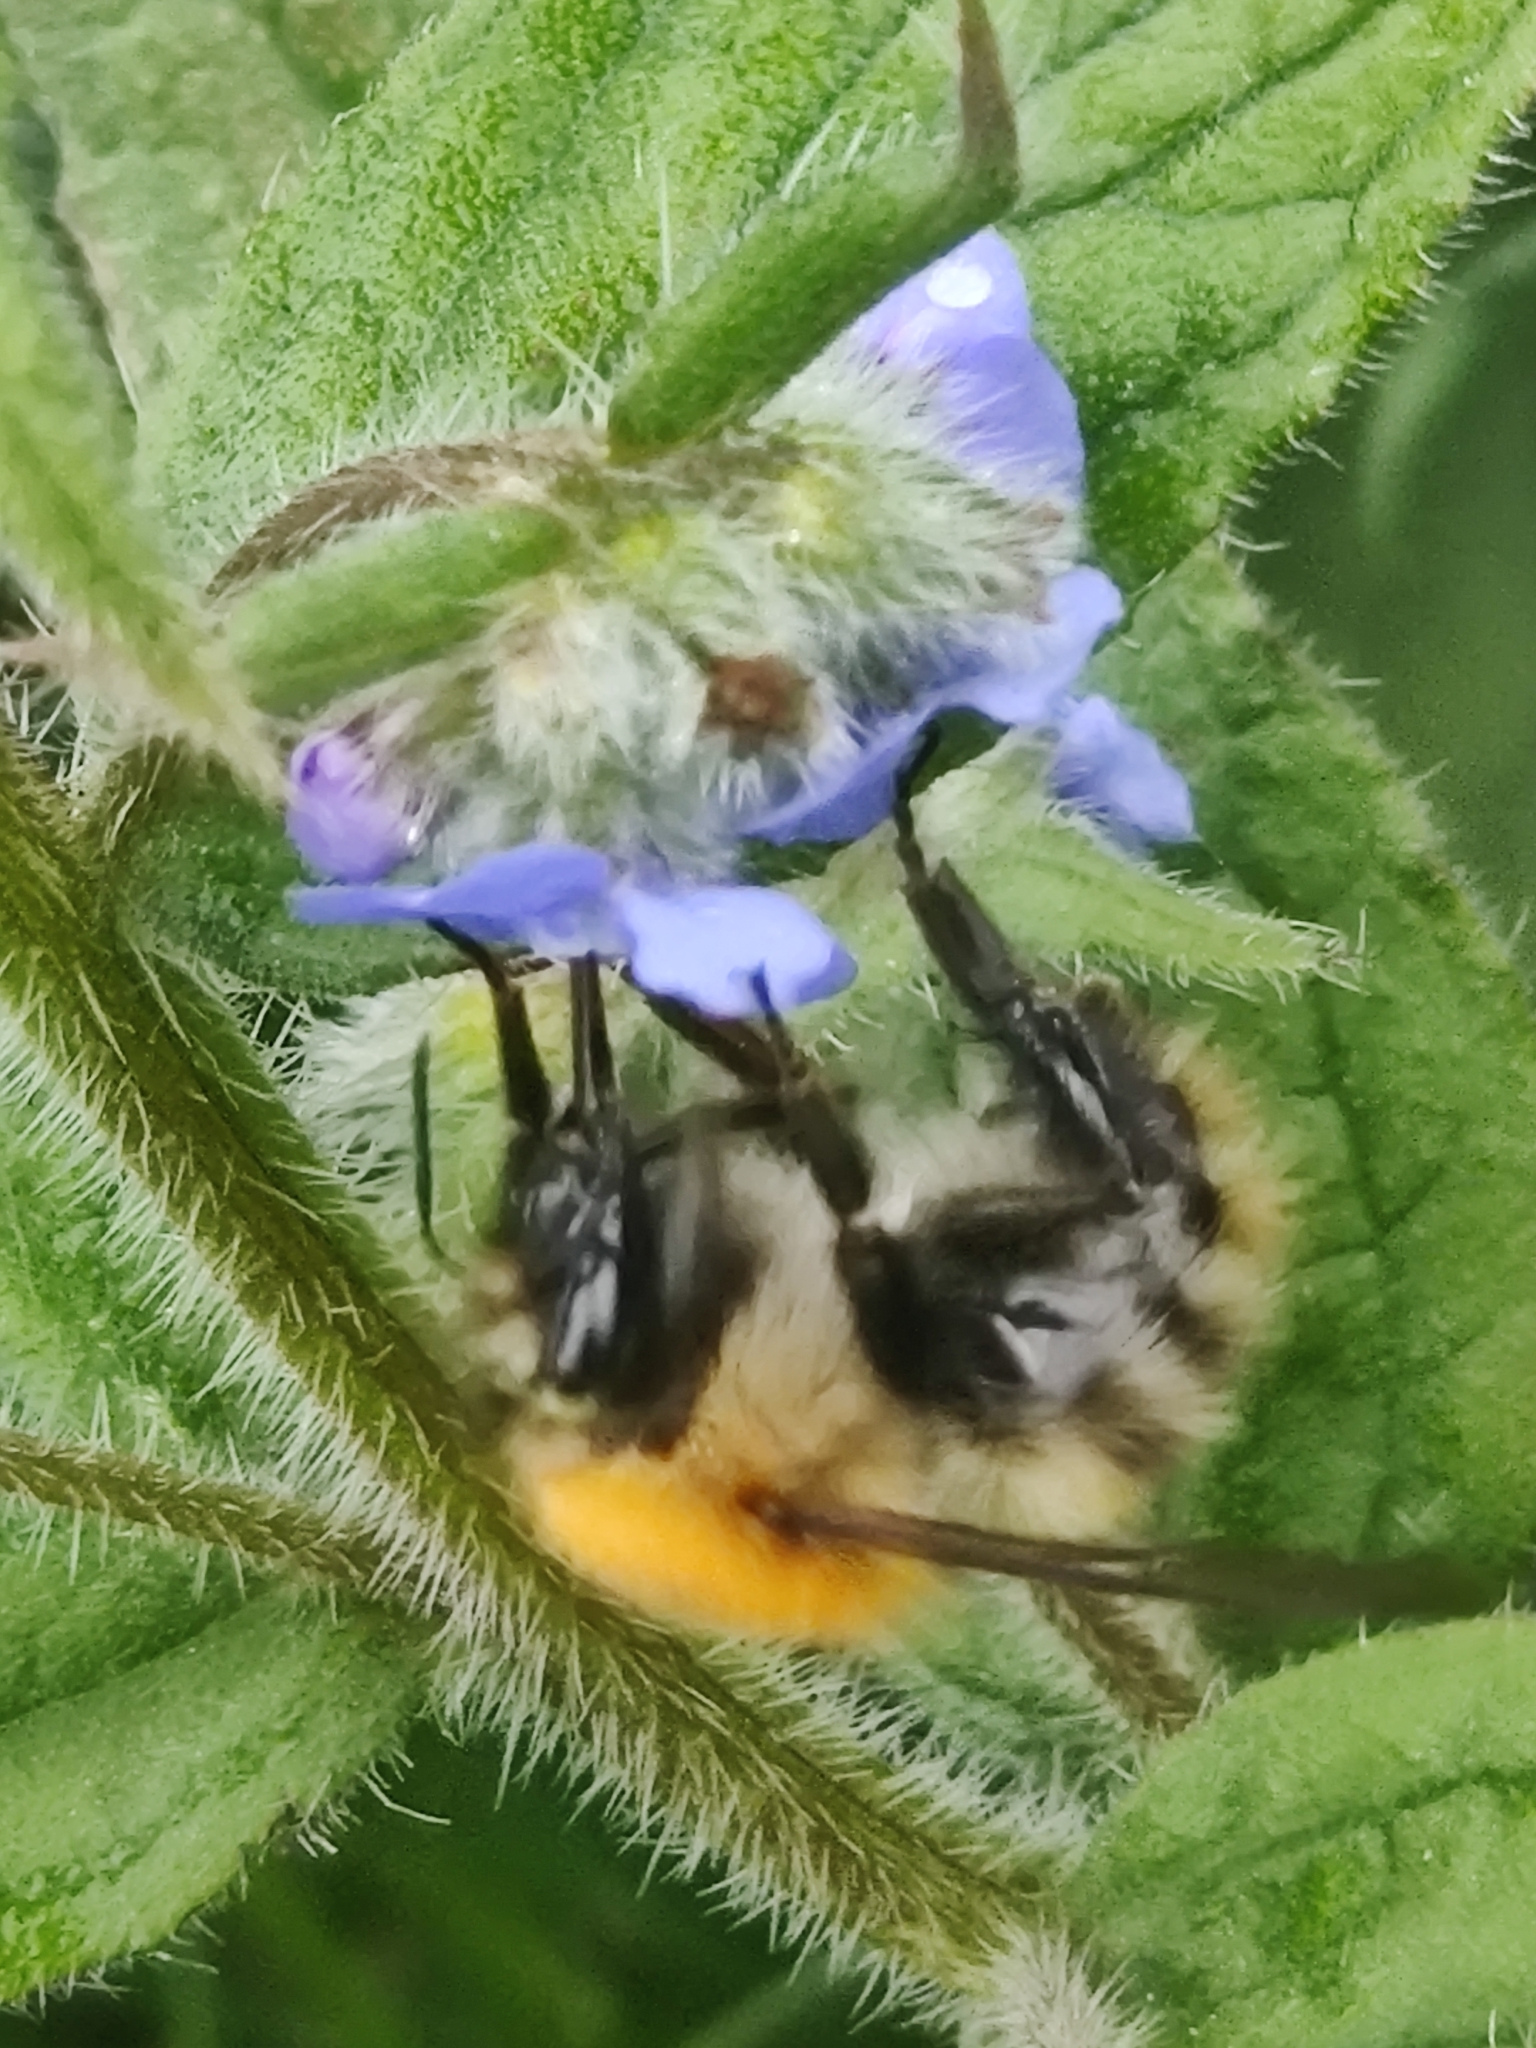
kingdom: Animalia
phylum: Arthropoda
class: Insecta
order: Hymenoptera
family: Apidae
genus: Bombus
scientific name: Bombus pascuorum
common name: Common carder bee
